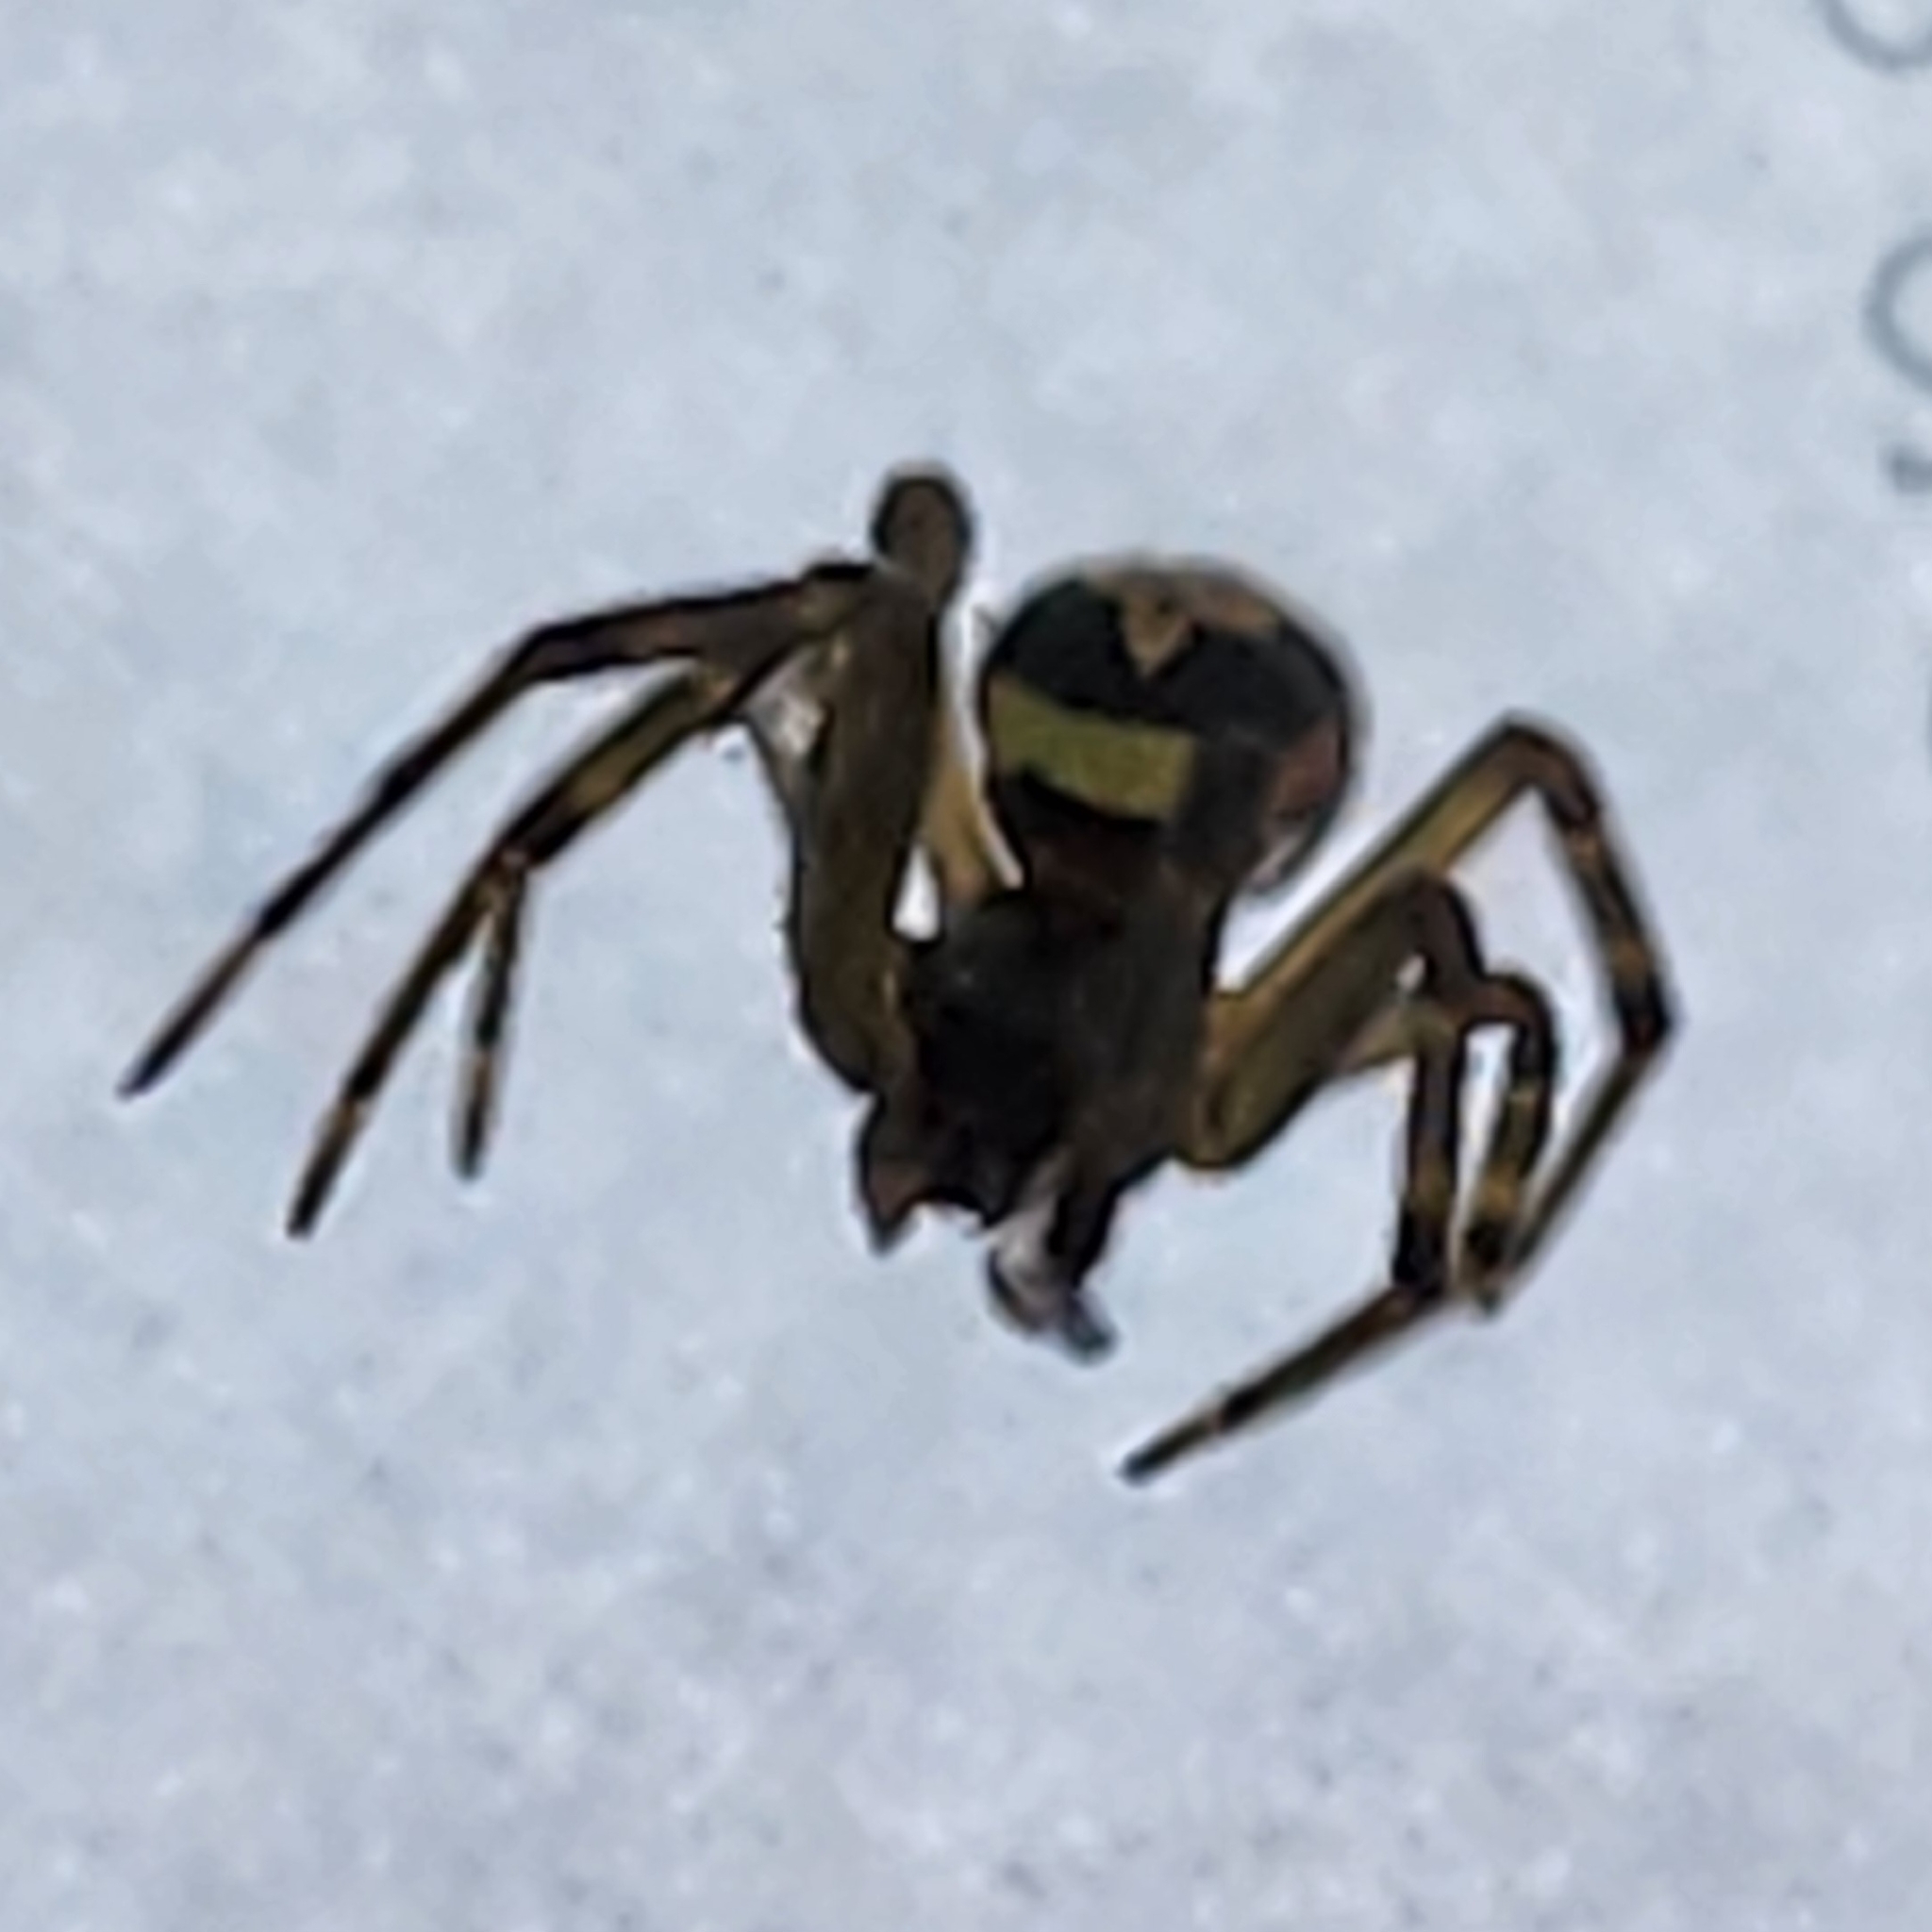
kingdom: Animalia
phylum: Arthropoda
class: Arachnida
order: Araneae
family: Theridiidae
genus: Steatoda
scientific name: Steatoda nobilis
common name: Cobweb weaver
